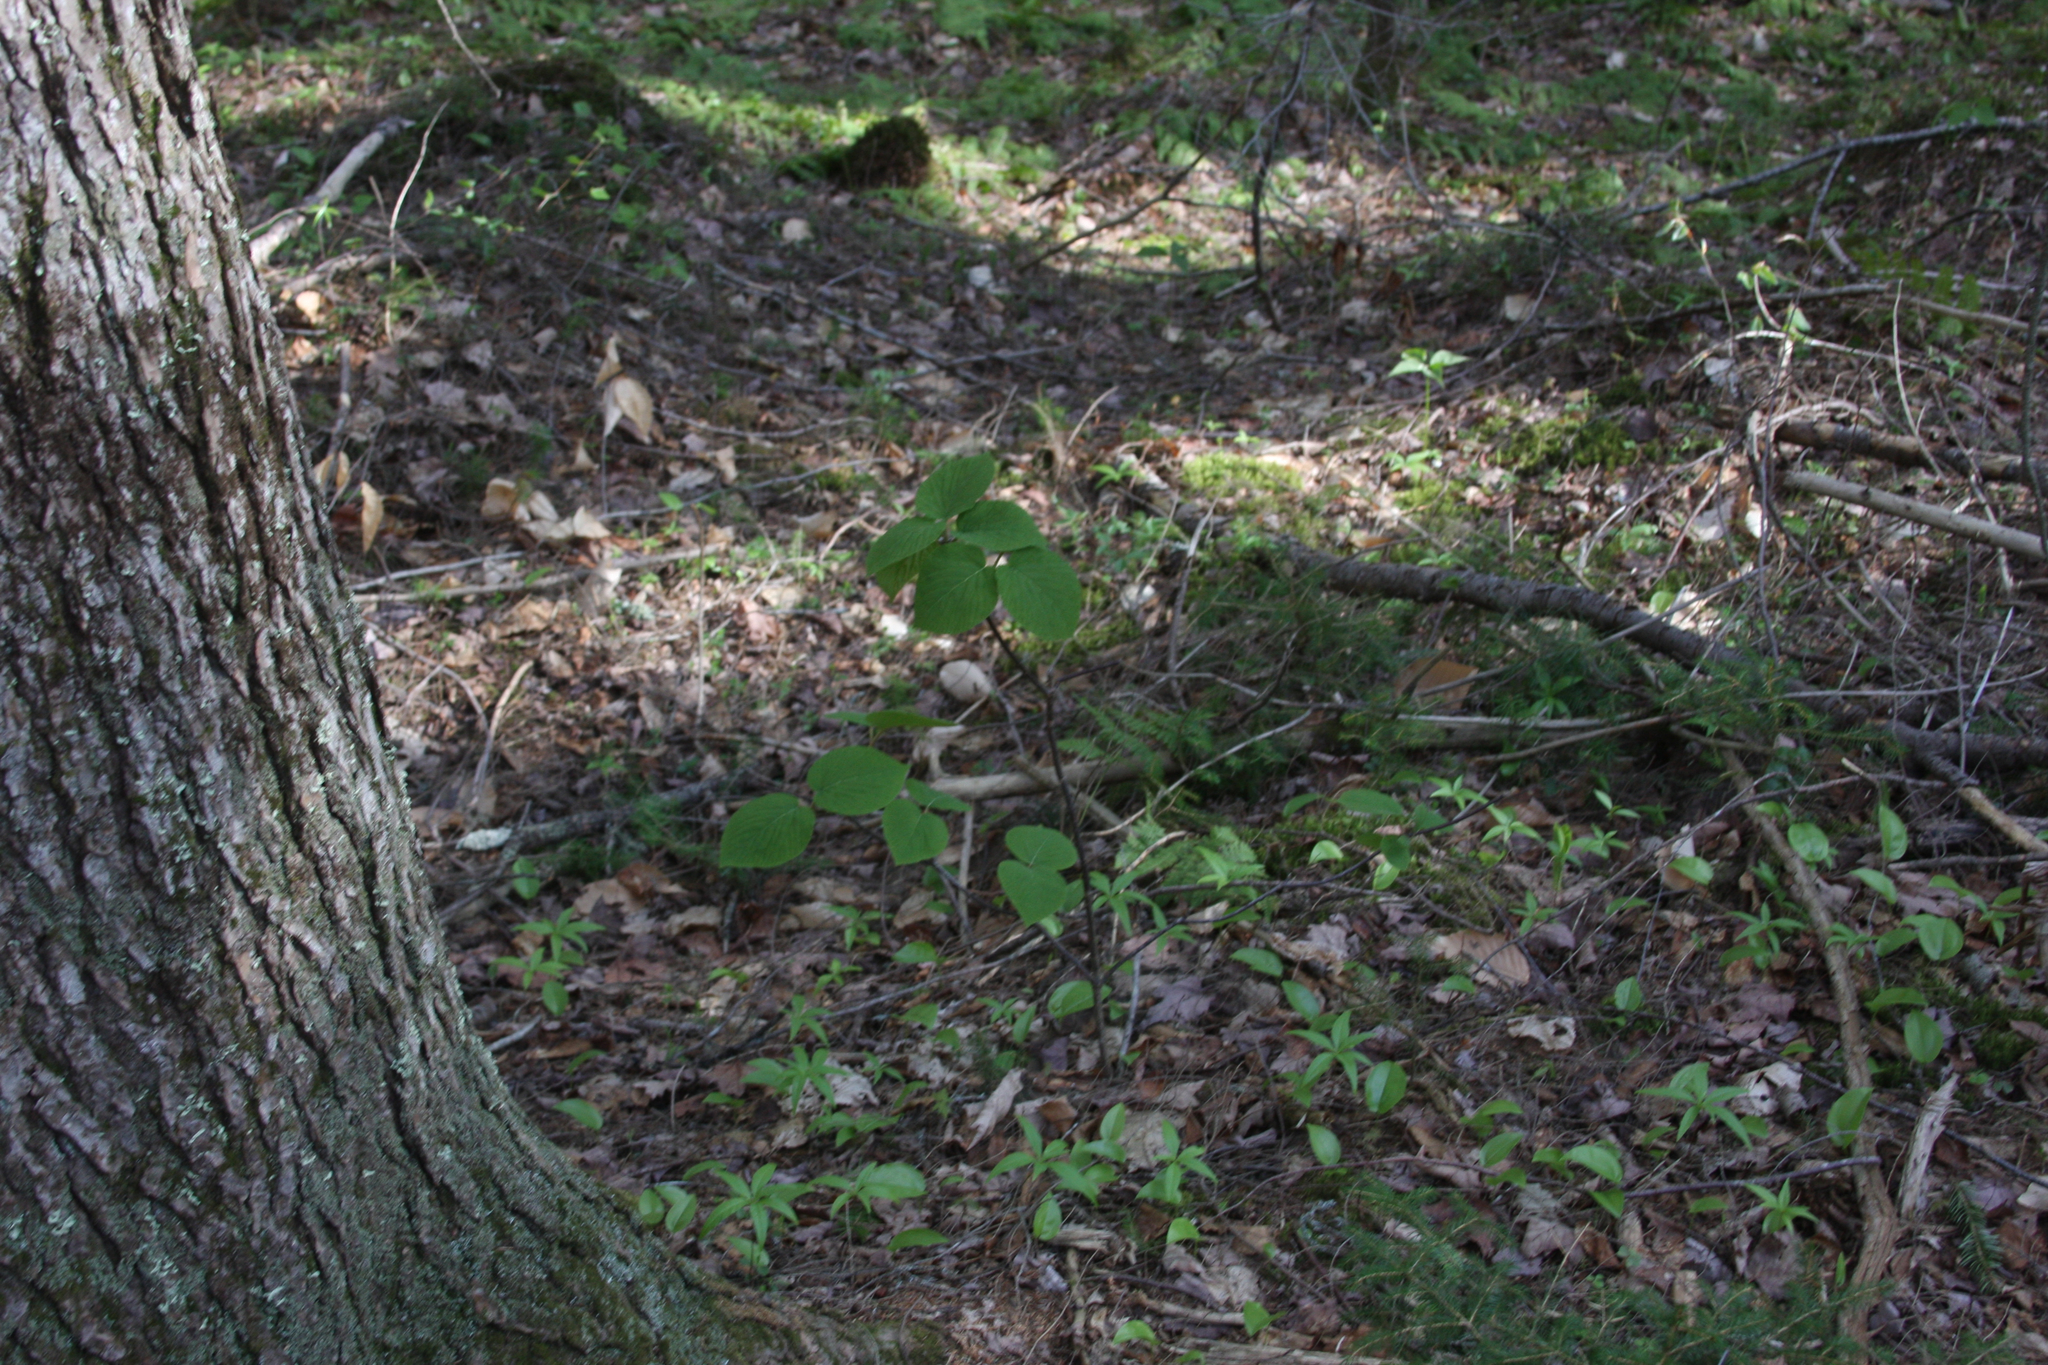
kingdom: Plantae
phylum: Tracheophyta
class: Magnoliopsida
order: Dipsacales
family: Viburnaceae
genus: Viburnum
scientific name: Viburnum lantanoides
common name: Hobblebush
